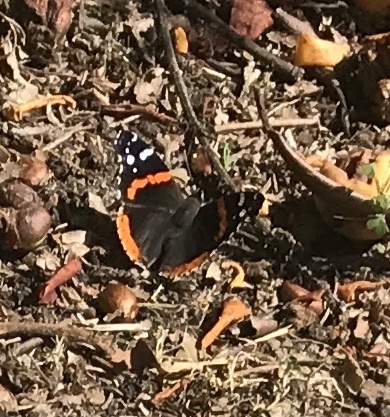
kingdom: Animalia
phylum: Arthropoda
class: Insecta
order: Lepidoptera
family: Nymphalidae
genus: Vanessa
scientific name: Vanessa atalanta
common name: Red admiral
